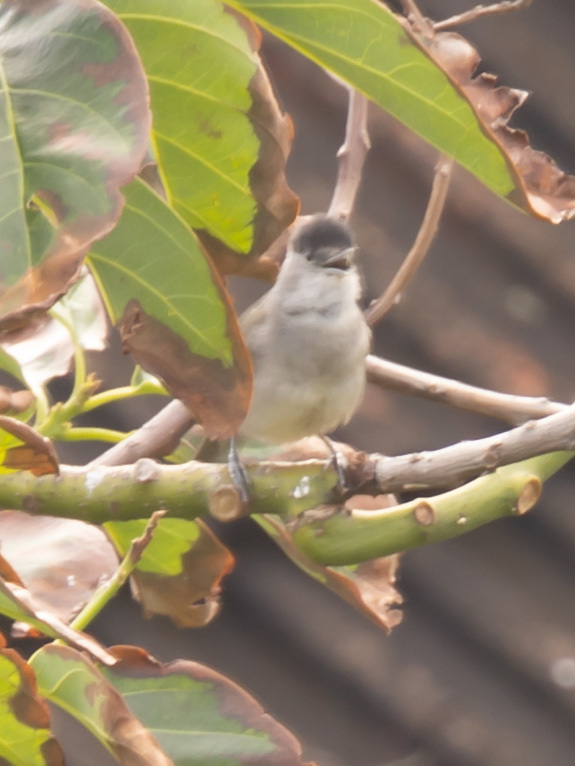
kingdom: Animalia
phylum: Chordata
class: Aves
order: Passeriformes
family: Sylviidae
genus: Sylvia
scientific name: Sylvia atricapilla
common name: Eurasian blackcap
